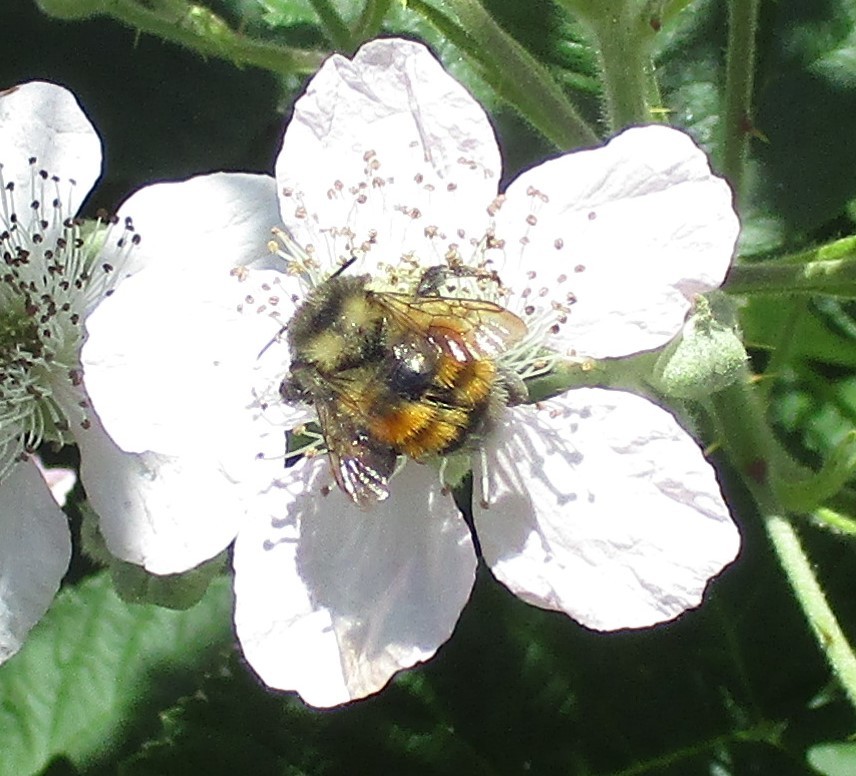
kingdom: Animalia
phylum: Arthropoda
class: Insecta
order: Hymenoptera
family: Apidae
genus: Bombus
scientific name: Bombus melanopygus
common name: Black tail bumble bee
